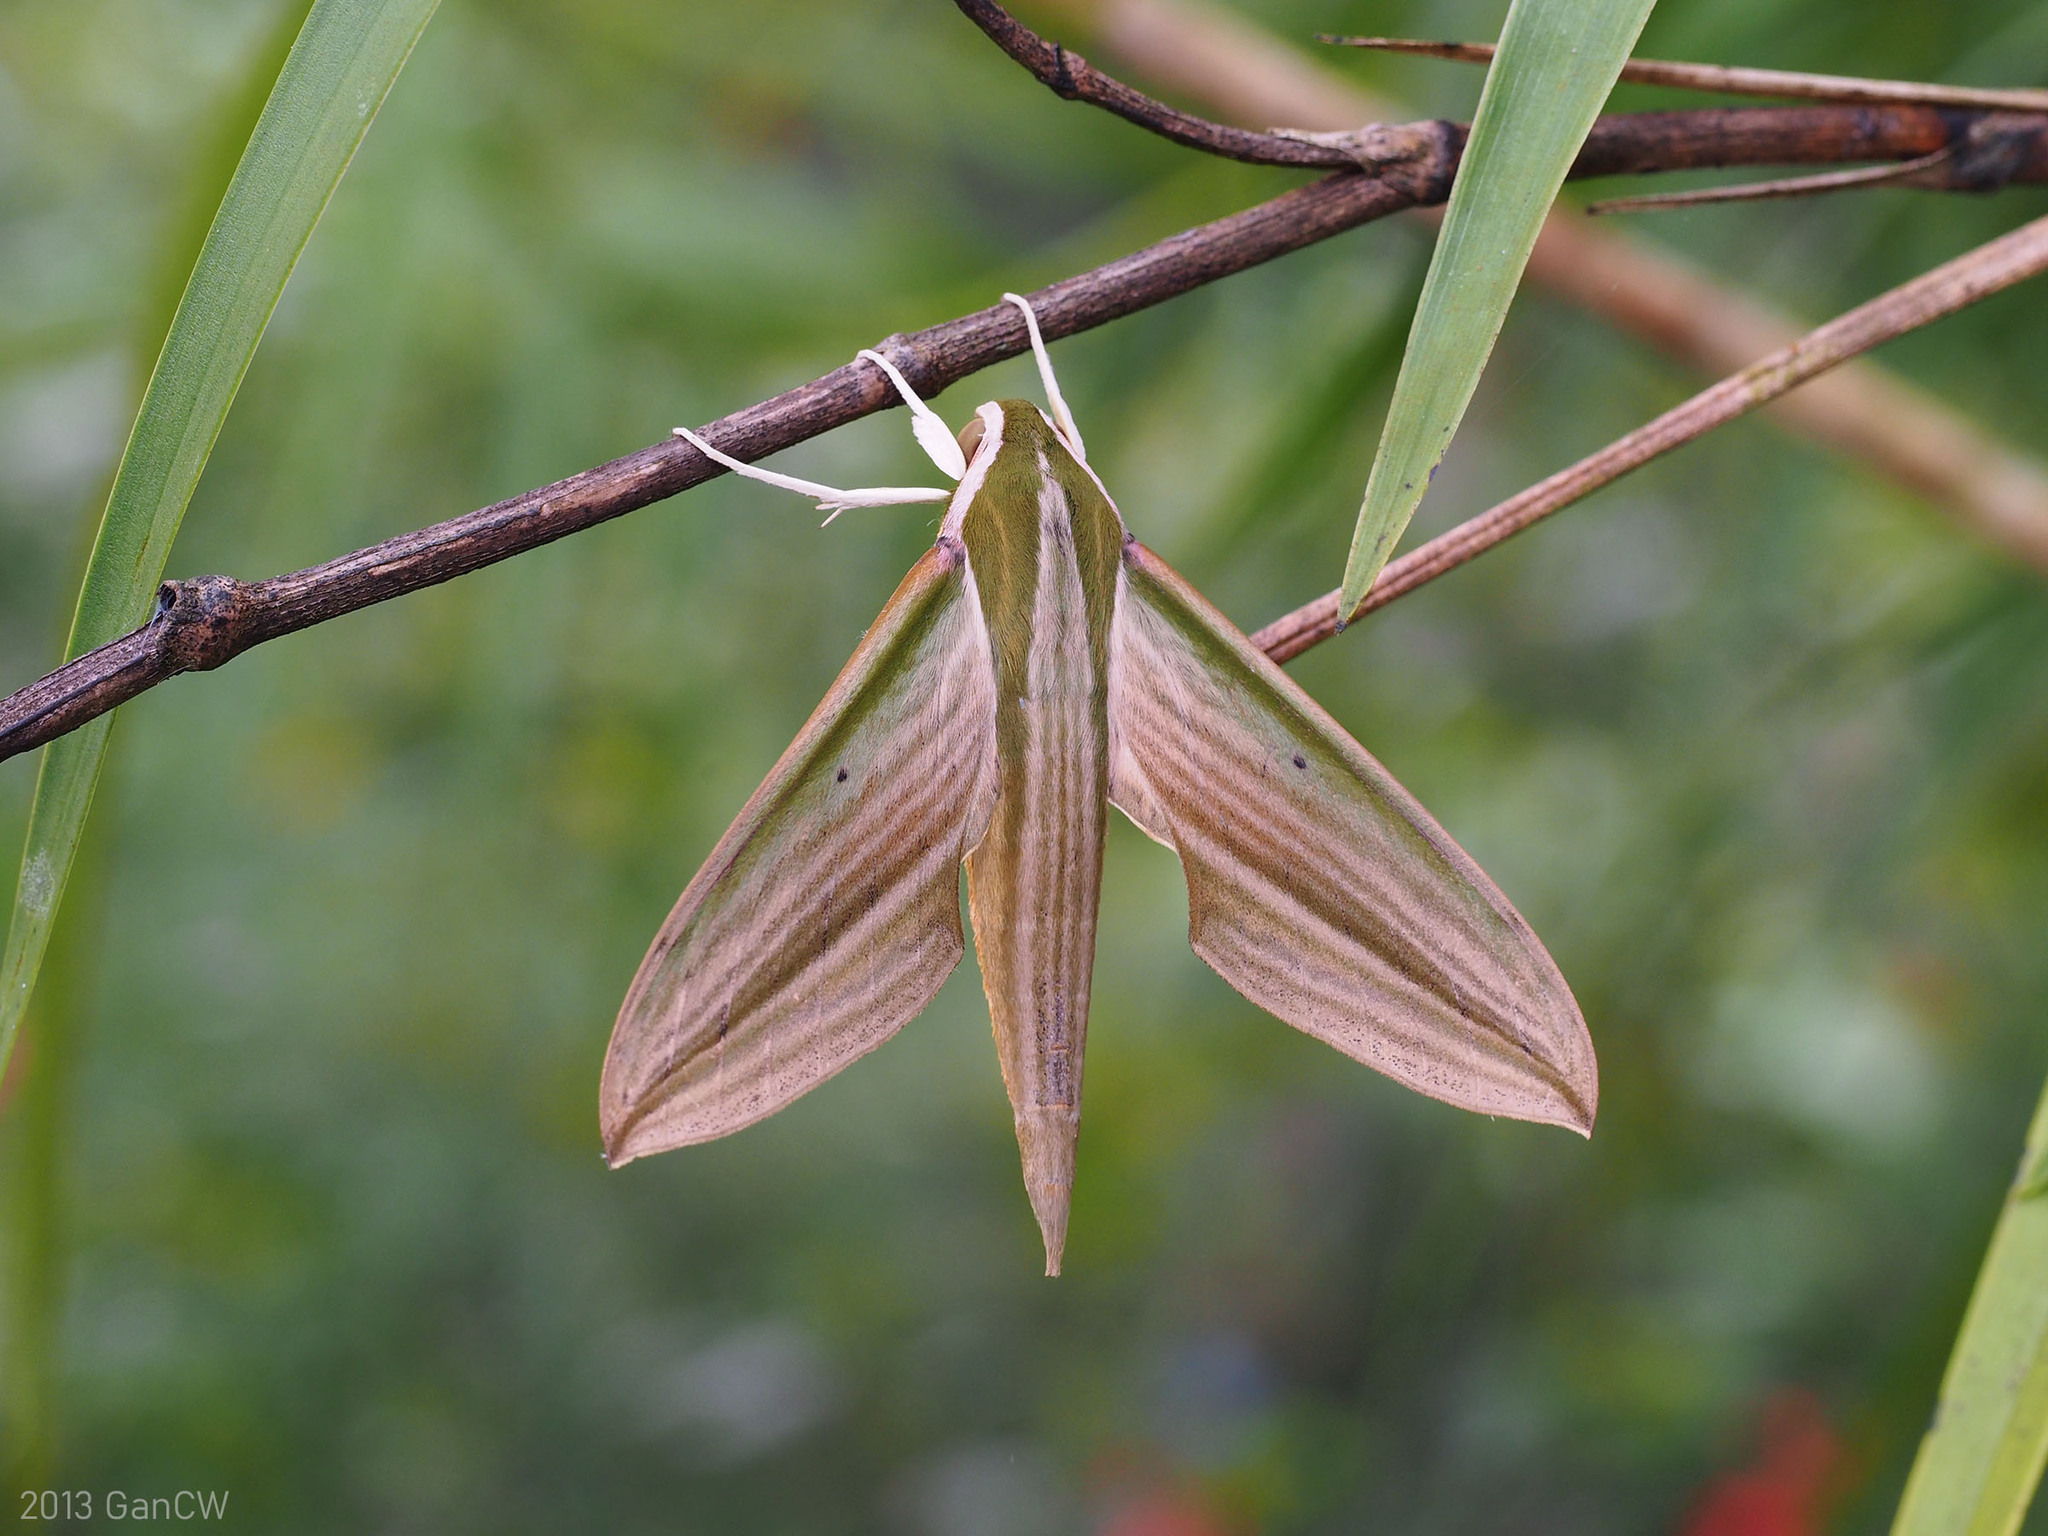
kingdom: Animalia
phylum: Arthropoda
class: Insecta
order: Lepidoptera
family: Sphingidae
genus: Cechetra
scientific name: Cechetra lineosa
